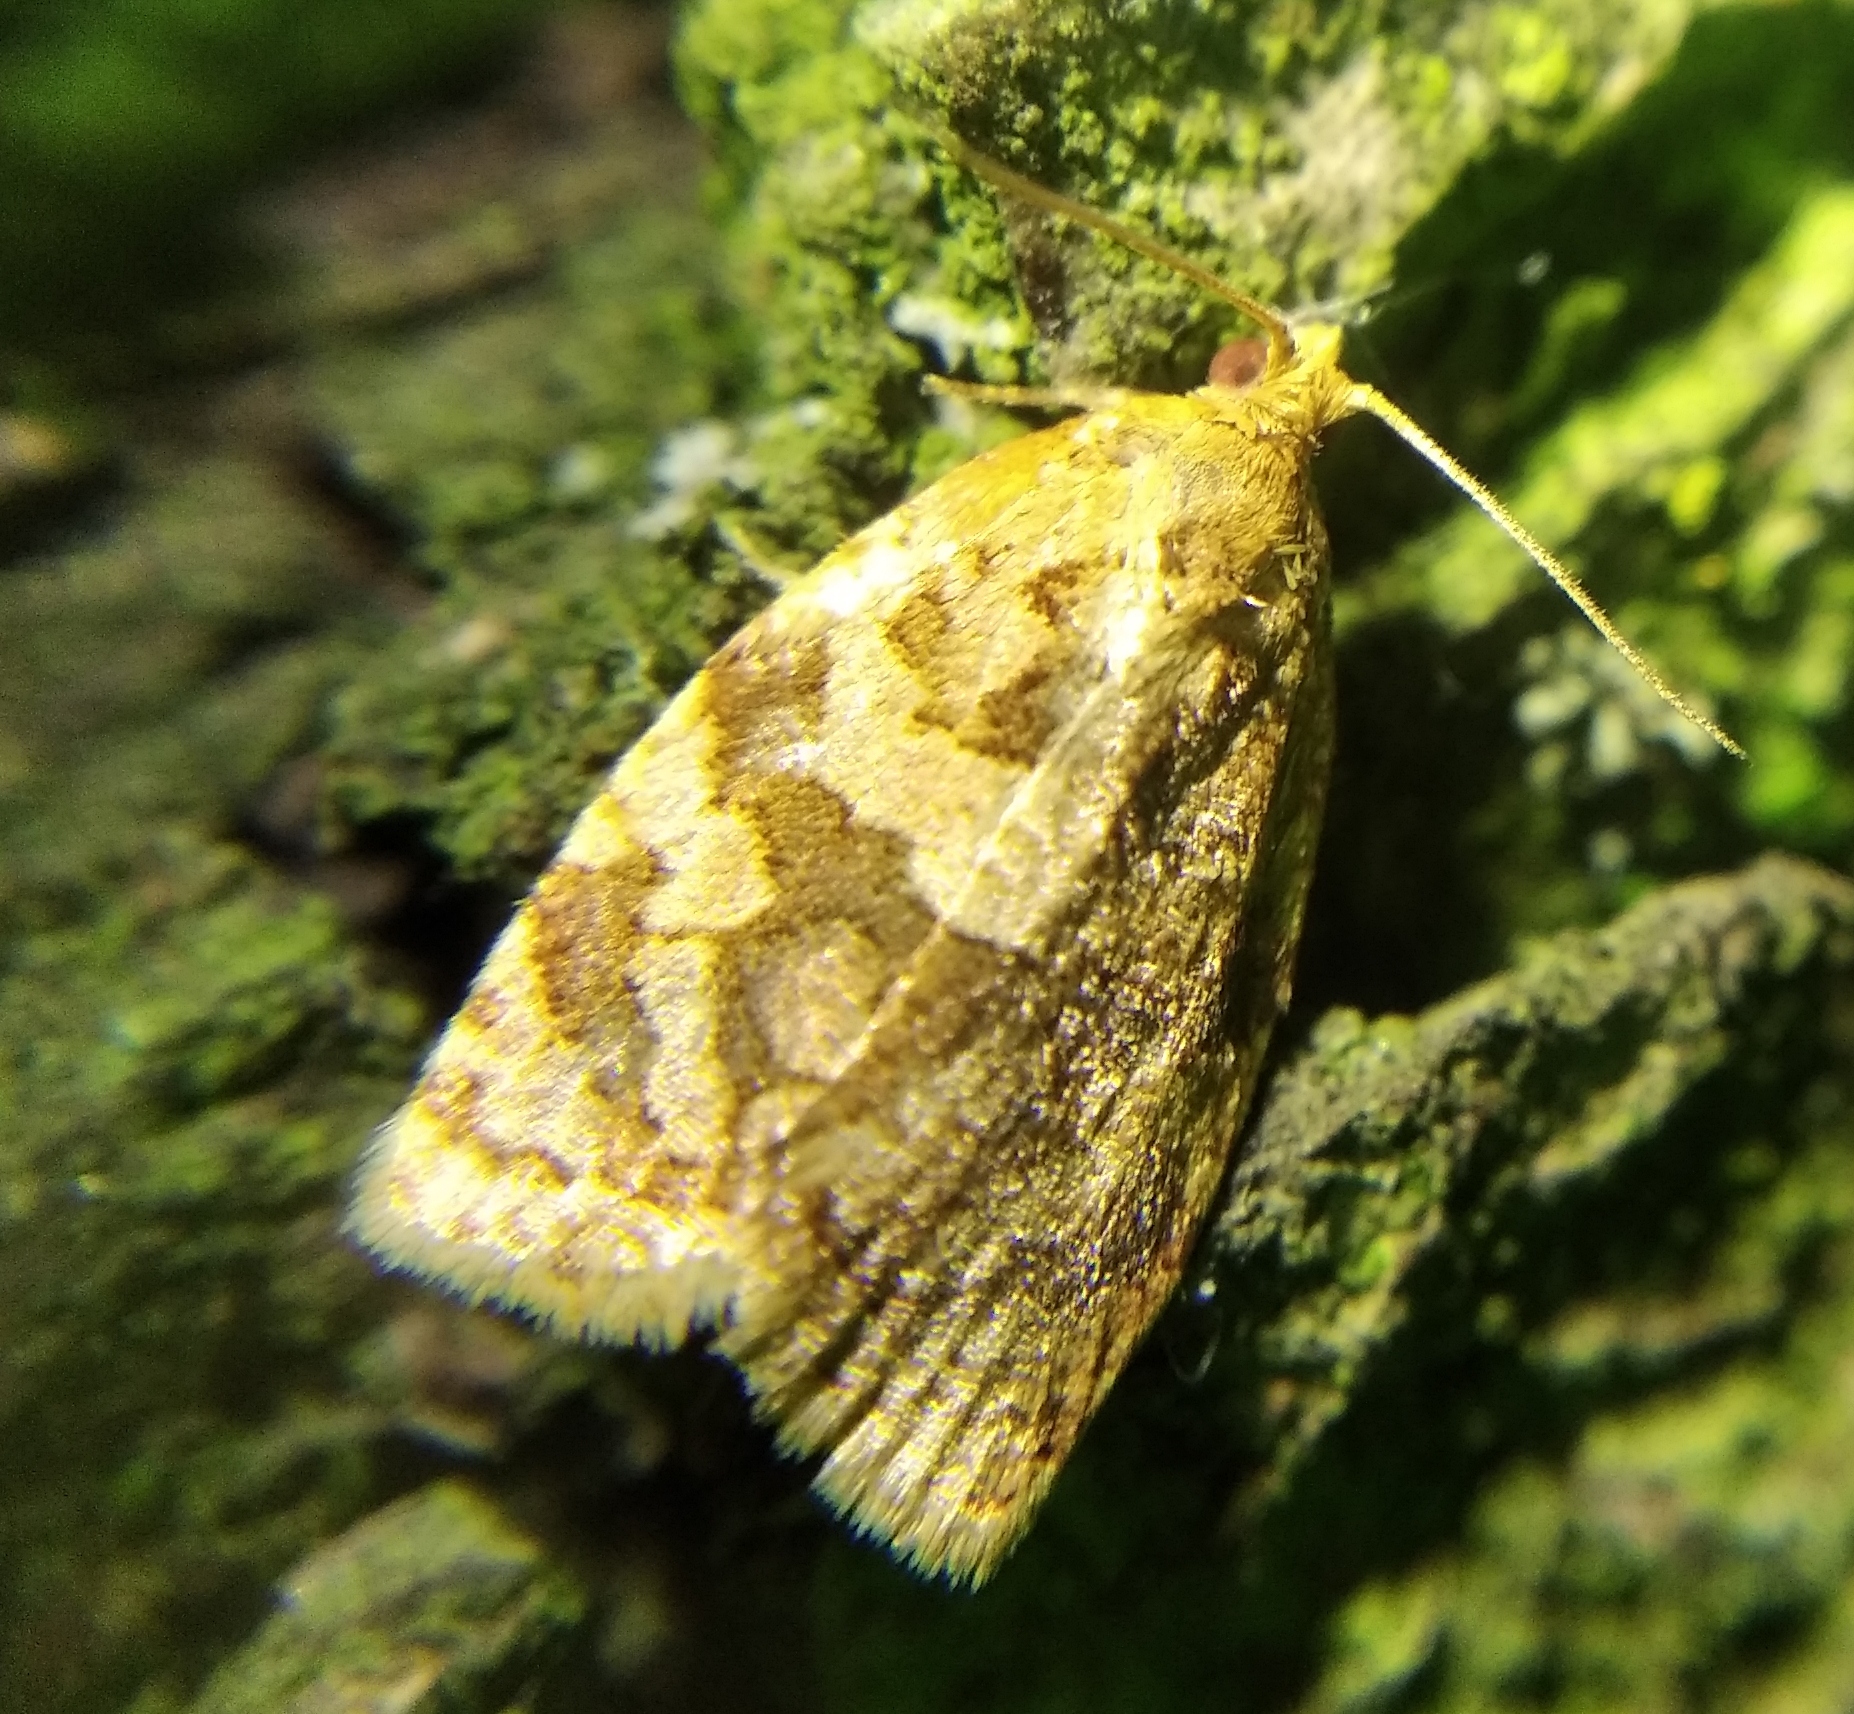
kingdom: Animalia
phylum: Arthropoda
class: Insecta
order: Lepidoptera
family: Tortricidae
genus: Adoxophyes
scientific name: Adoxophyes orana
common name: Summer fruit tortrix
